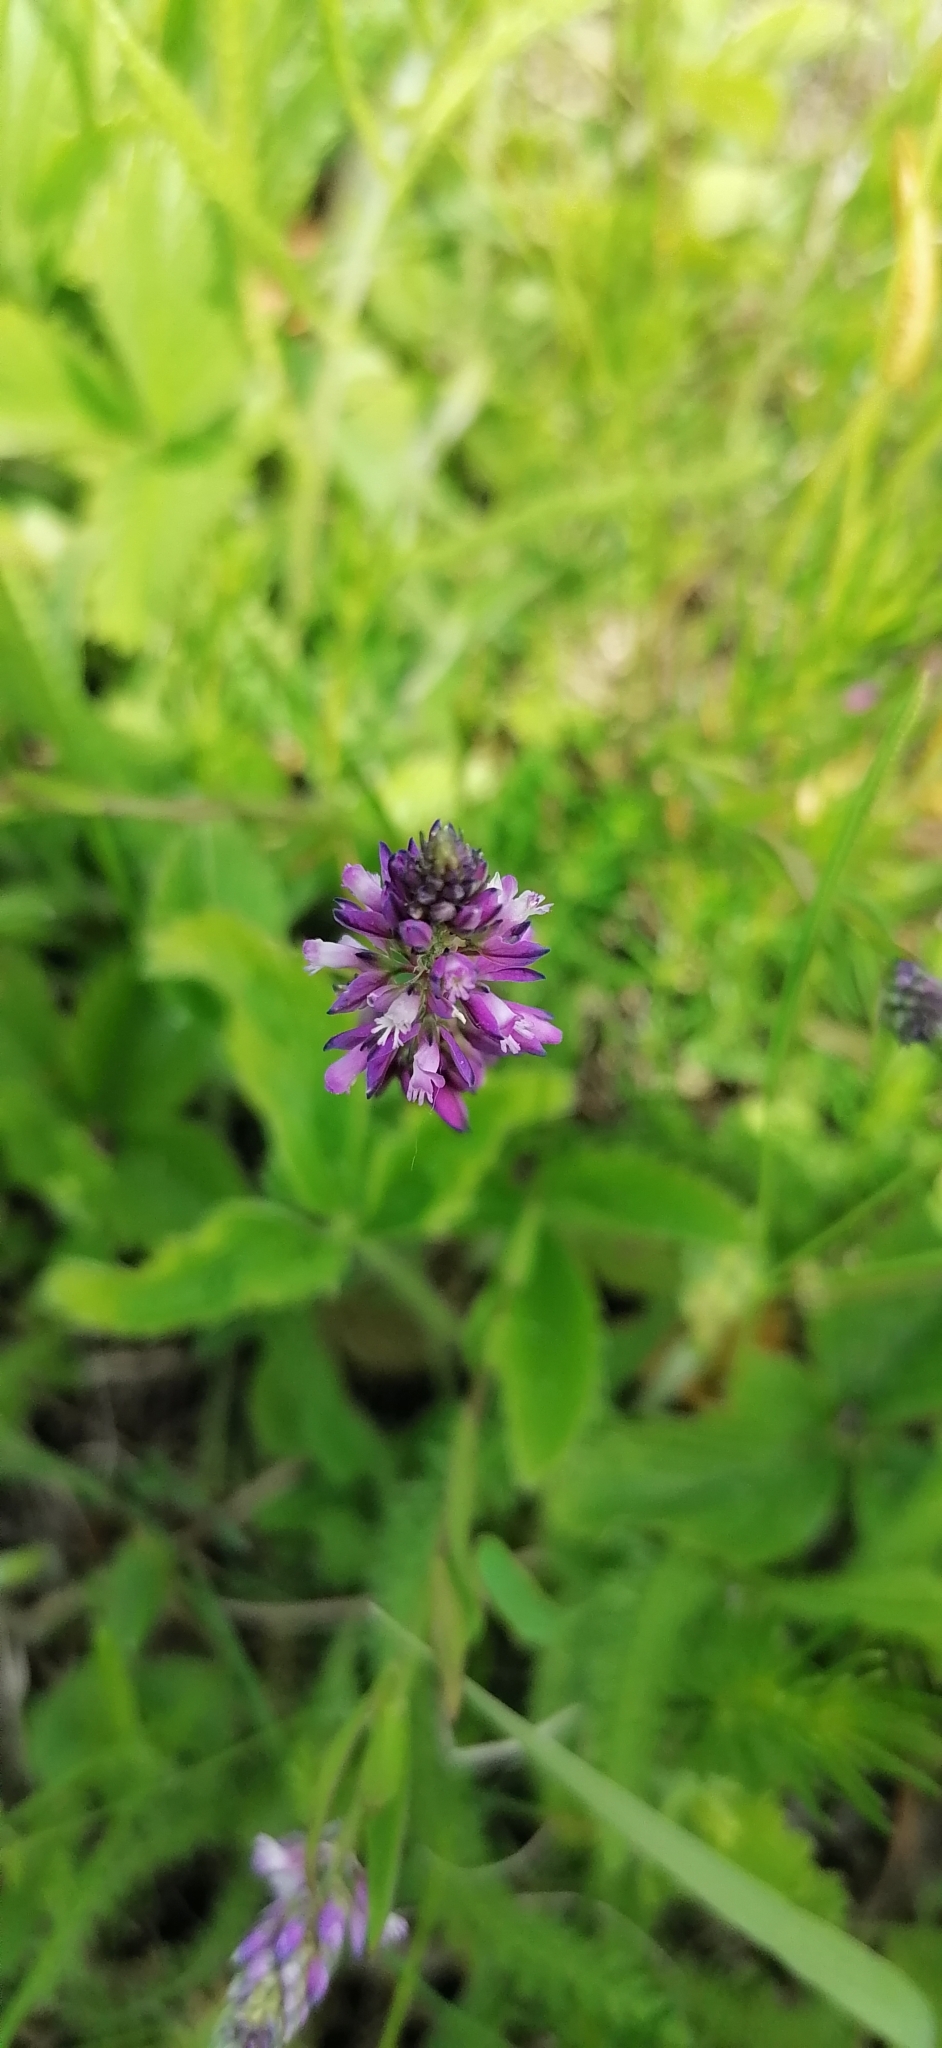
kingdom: Plantae
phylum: Tracheophyta
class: Magnoliopsida
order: Fabales
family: Polygalaceae
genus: Polygala
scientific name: Polygala comosa
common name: Tufted milkwort
